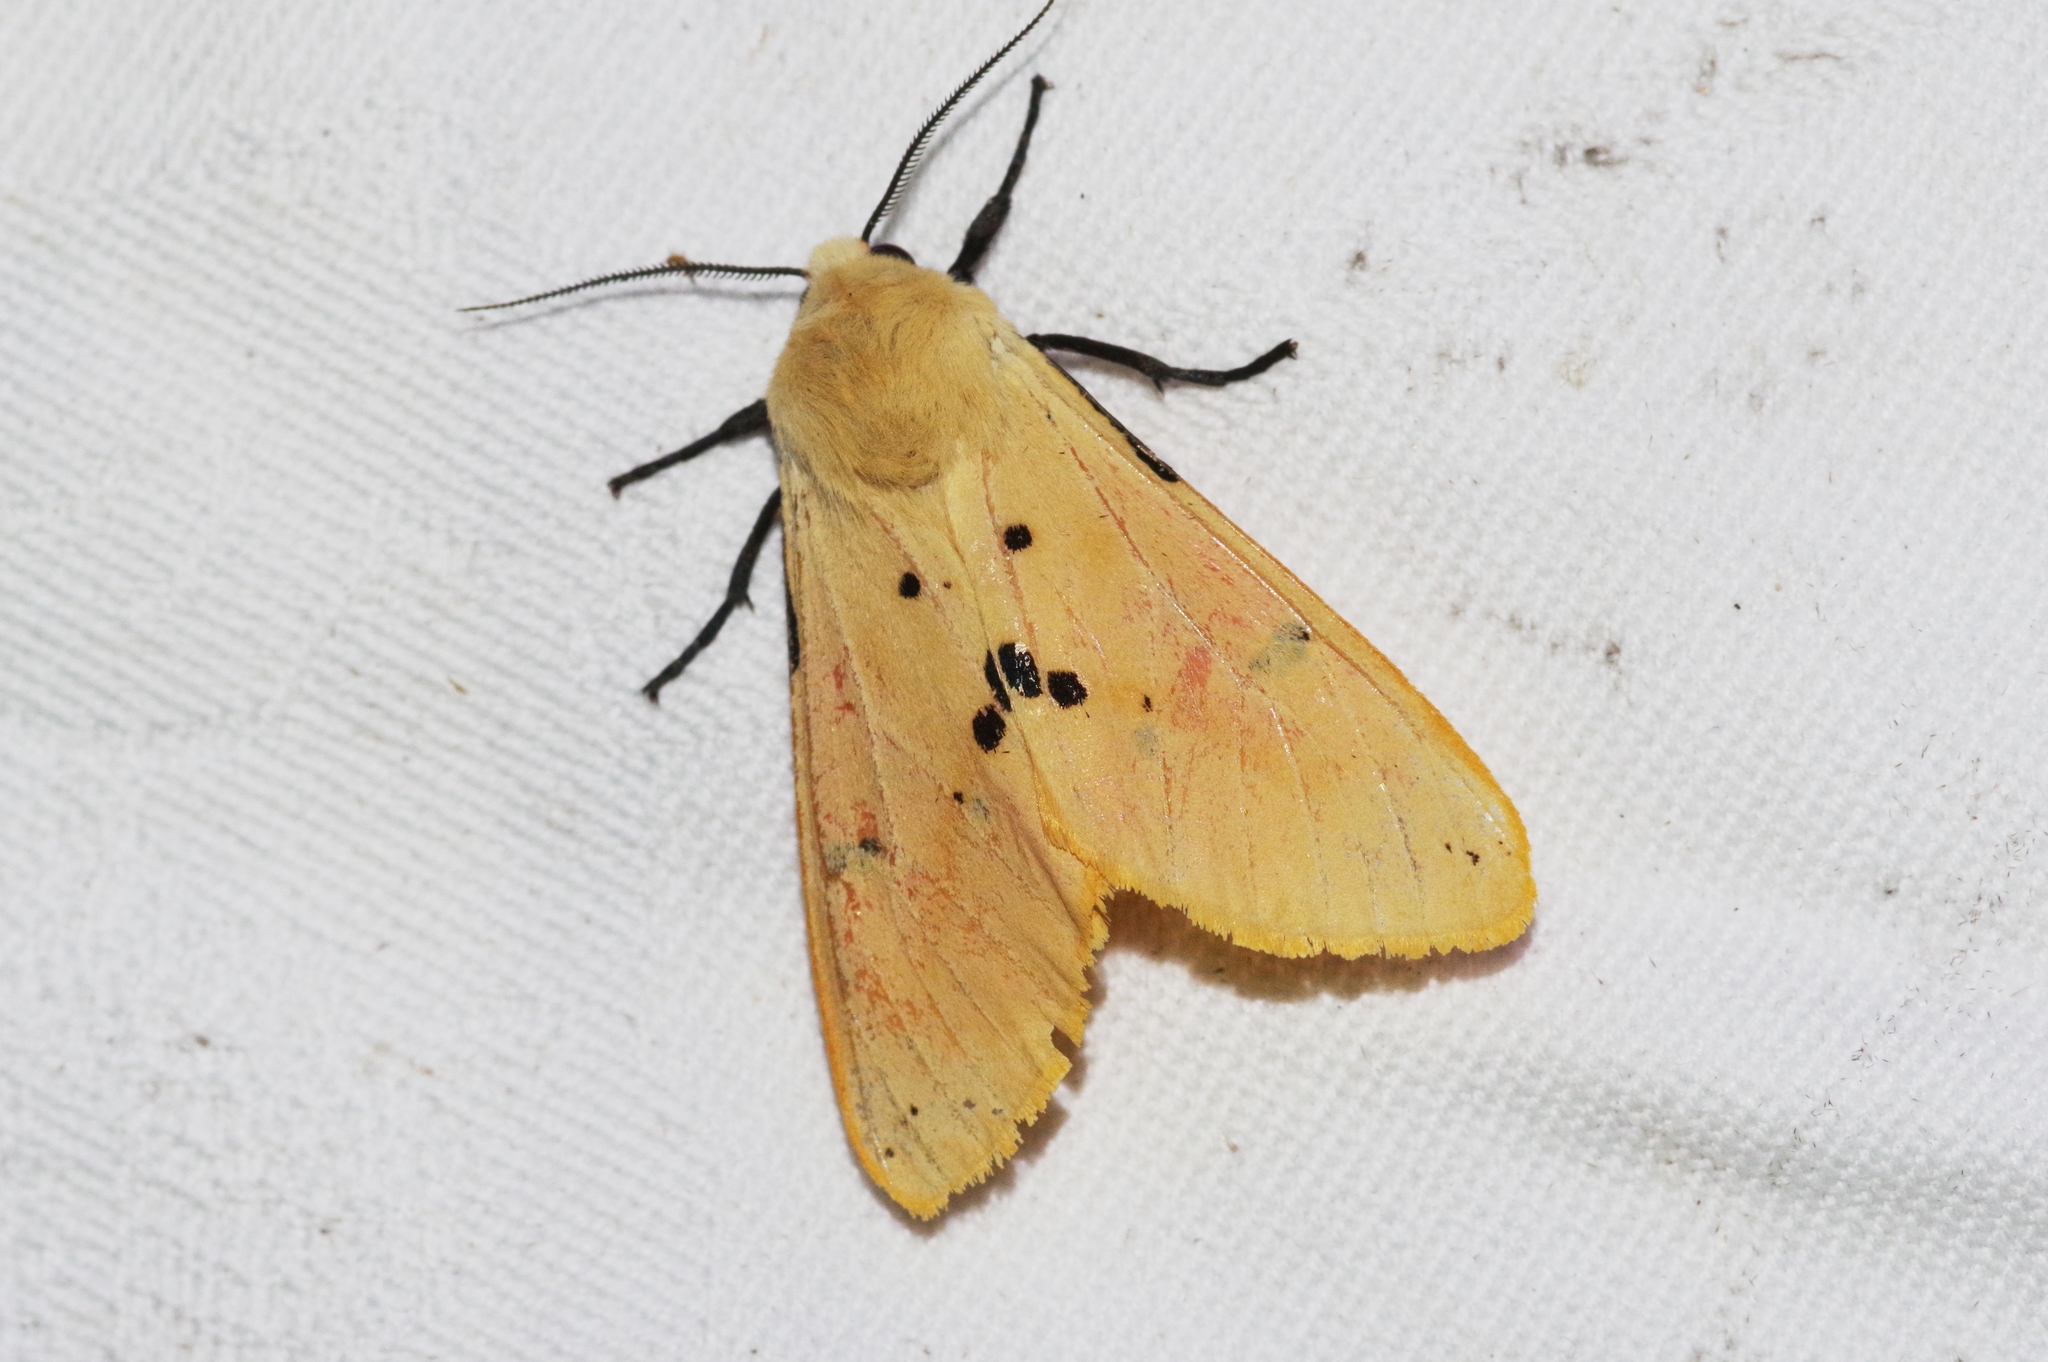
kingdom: Animalia
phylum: Arthropoda
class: Insecta
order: Lepidoptera
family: Erebidae
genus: Spilarctia
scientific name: Spilarctia seriatopunctata
